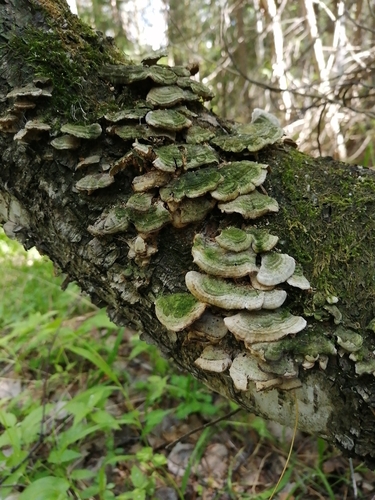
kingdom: Fungi
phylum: Basidiomycota
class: Agaricomycetes
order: Hymenochaetales
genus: Trichaptum
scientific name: Trichaptum biforme
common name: Violet-toothed polypore
